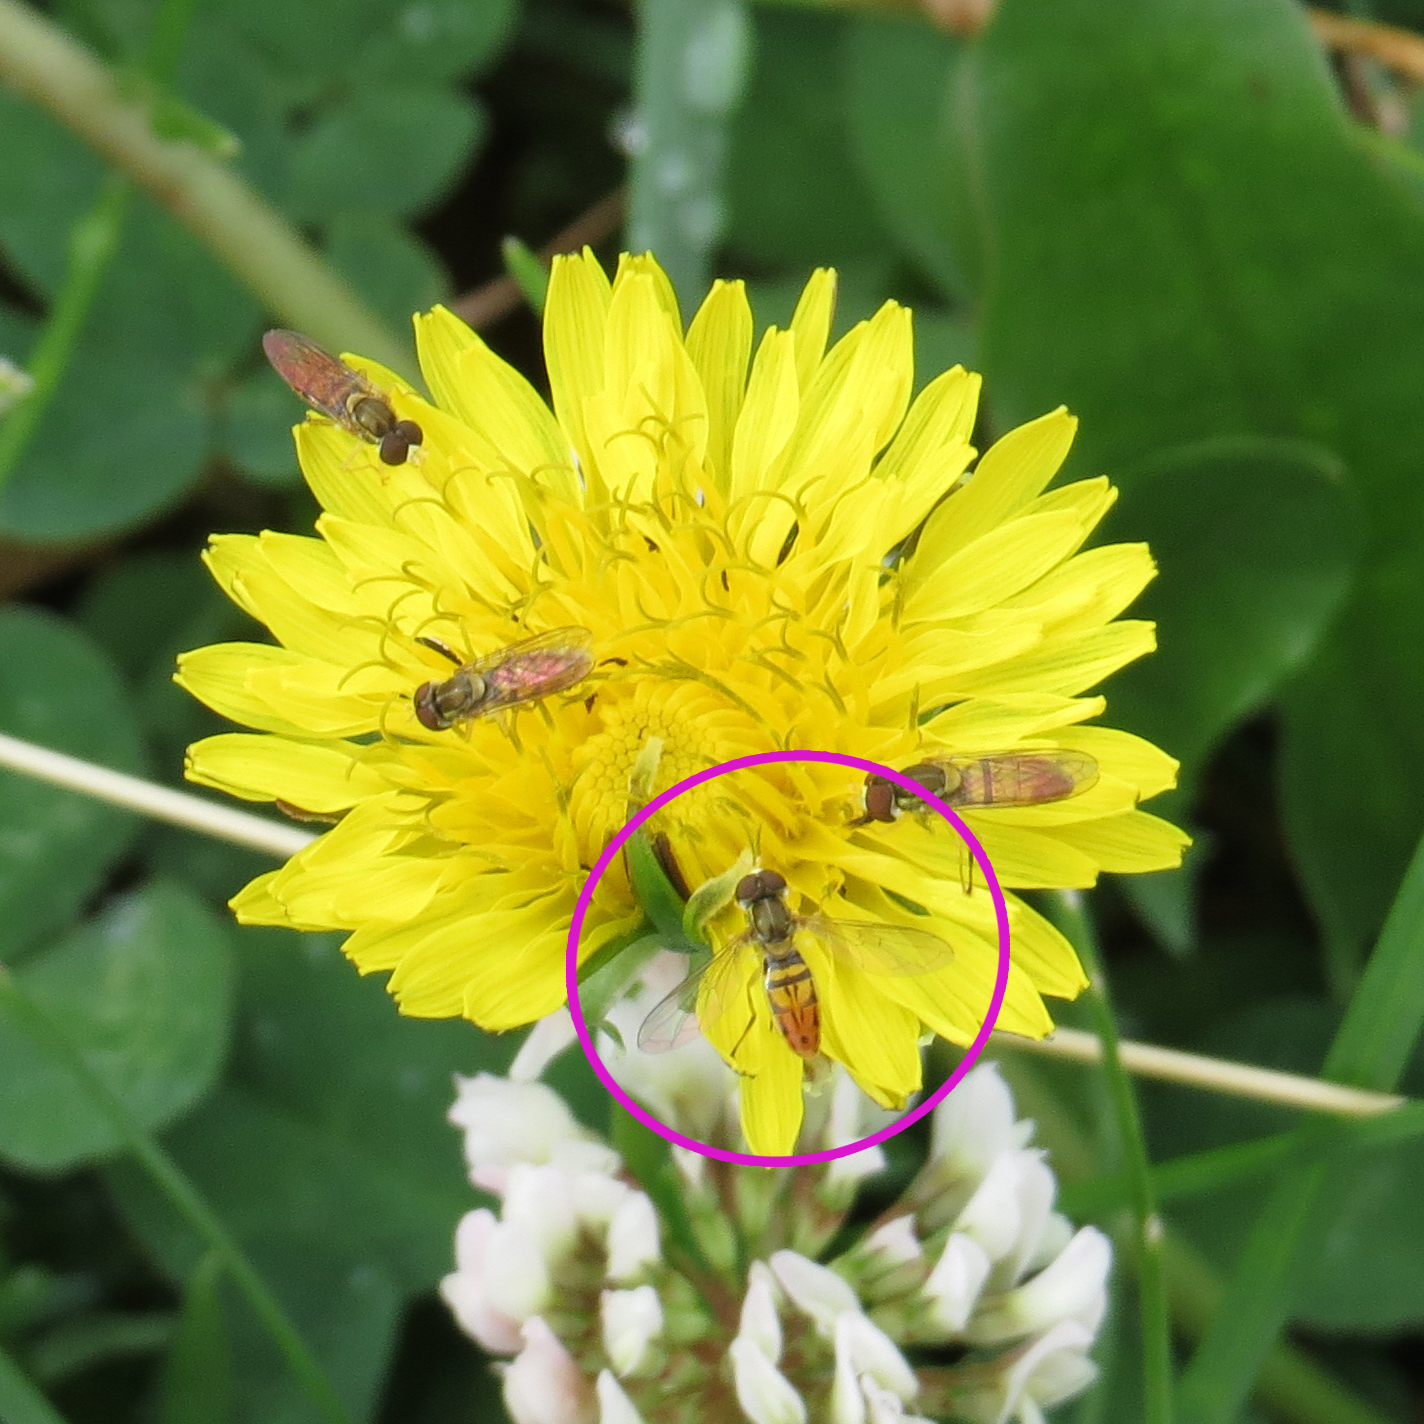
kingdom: Animalia
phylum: Arthropoda
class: Insecta
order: Diptera
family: Syrphidae
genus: Toxomerus
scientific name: Toxomerus marginatus
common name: Syrphid fly
